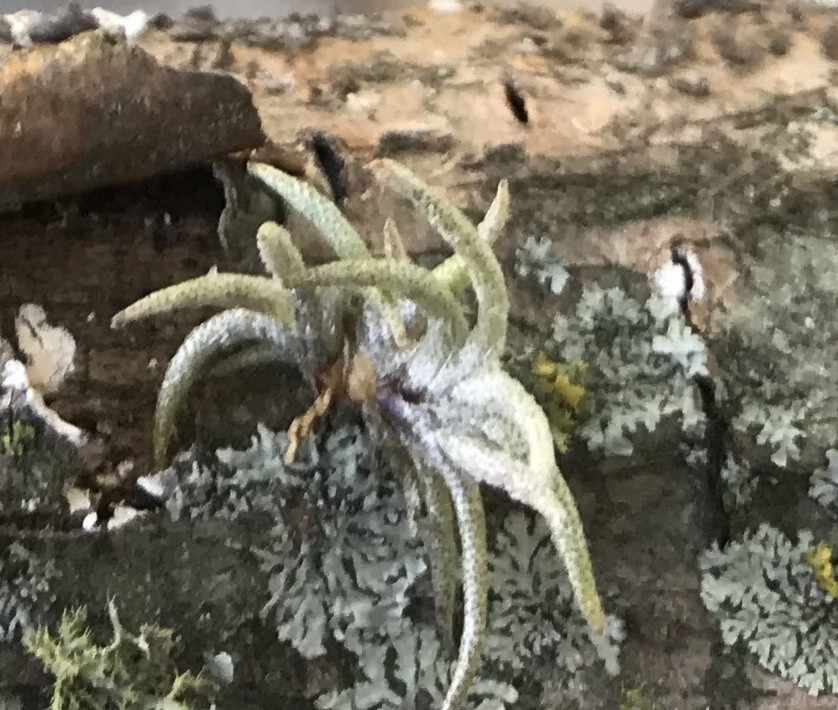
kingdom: Plantae
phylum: Tracheophyta
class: Liliopsida
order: Poales
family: Bromeliaceae
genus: Tillandsia
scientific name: Tillandsia recurvata
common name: Small ballmoss
